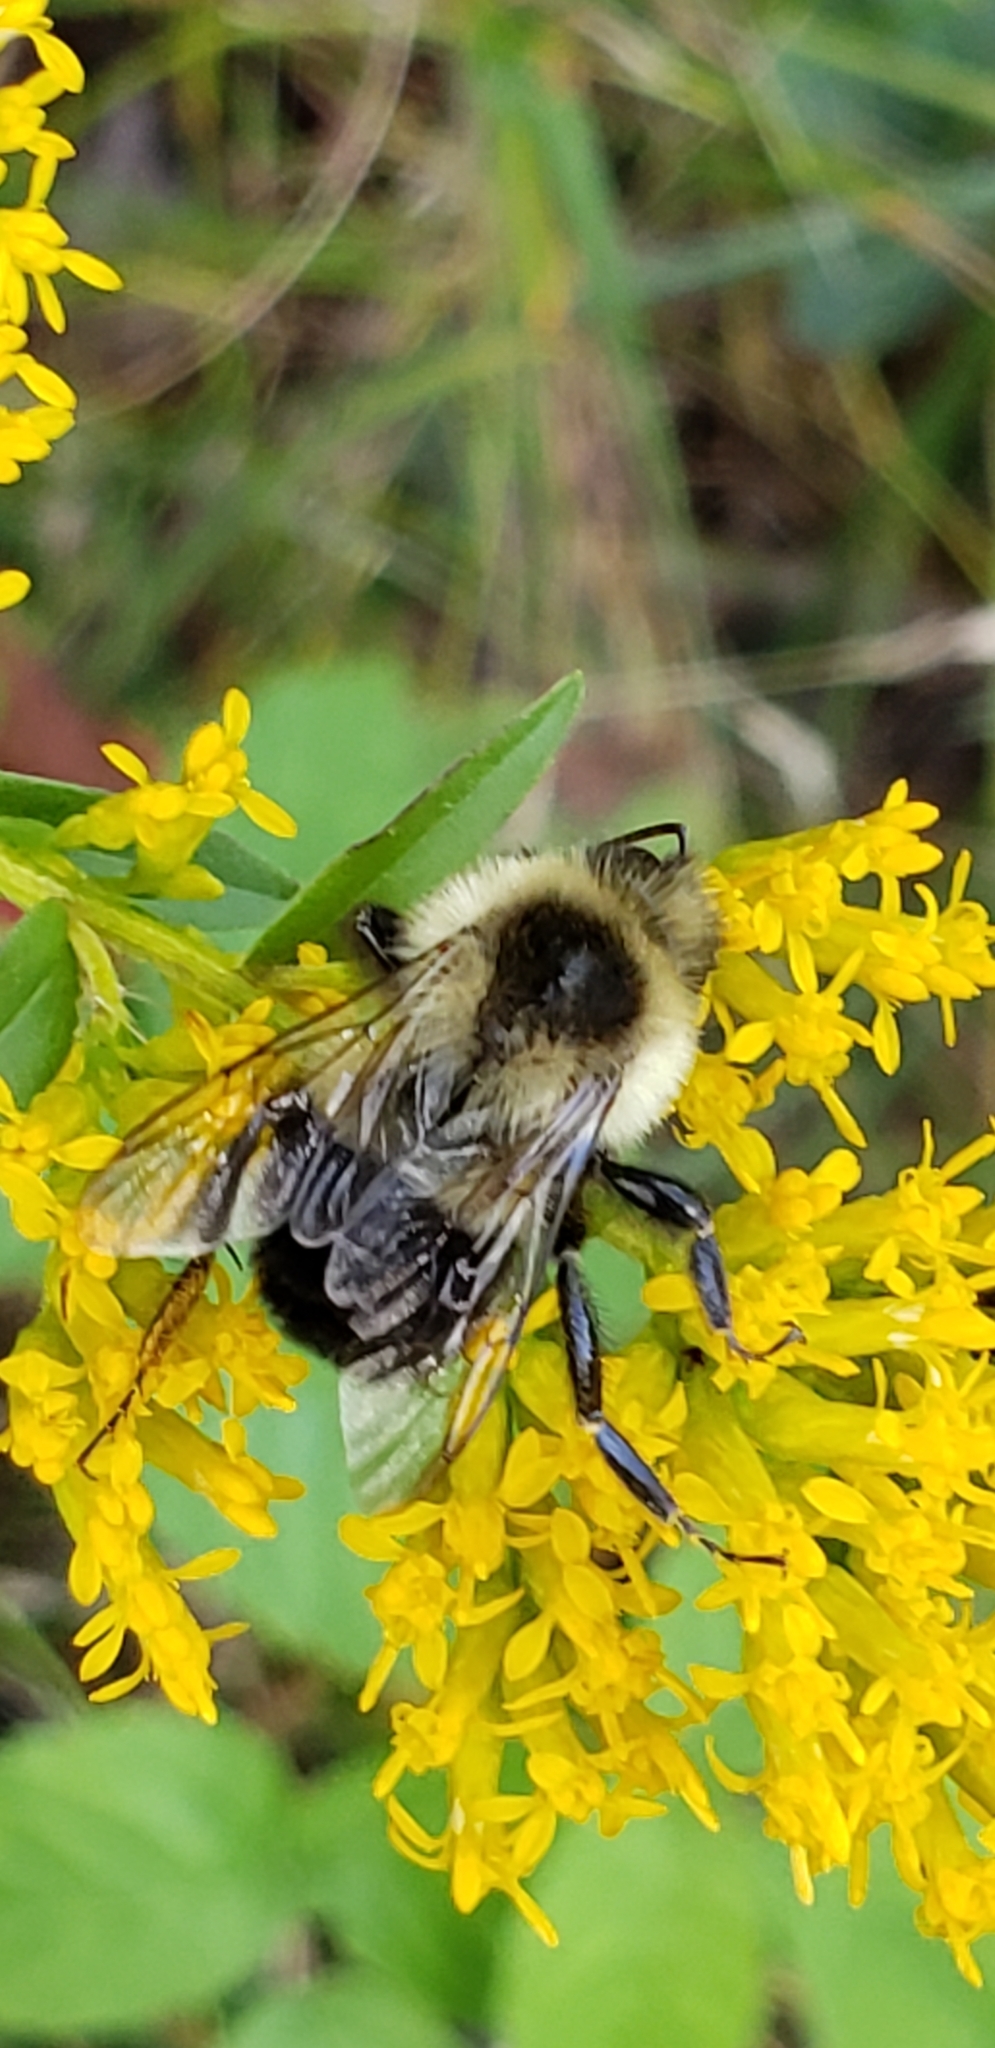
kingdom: Animalia
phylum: Arthropoda
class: Insecta
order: Hymenoptera
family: Apidae
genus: Bombus
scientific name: Bombus impatiens
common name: Common eastern bumble bee
